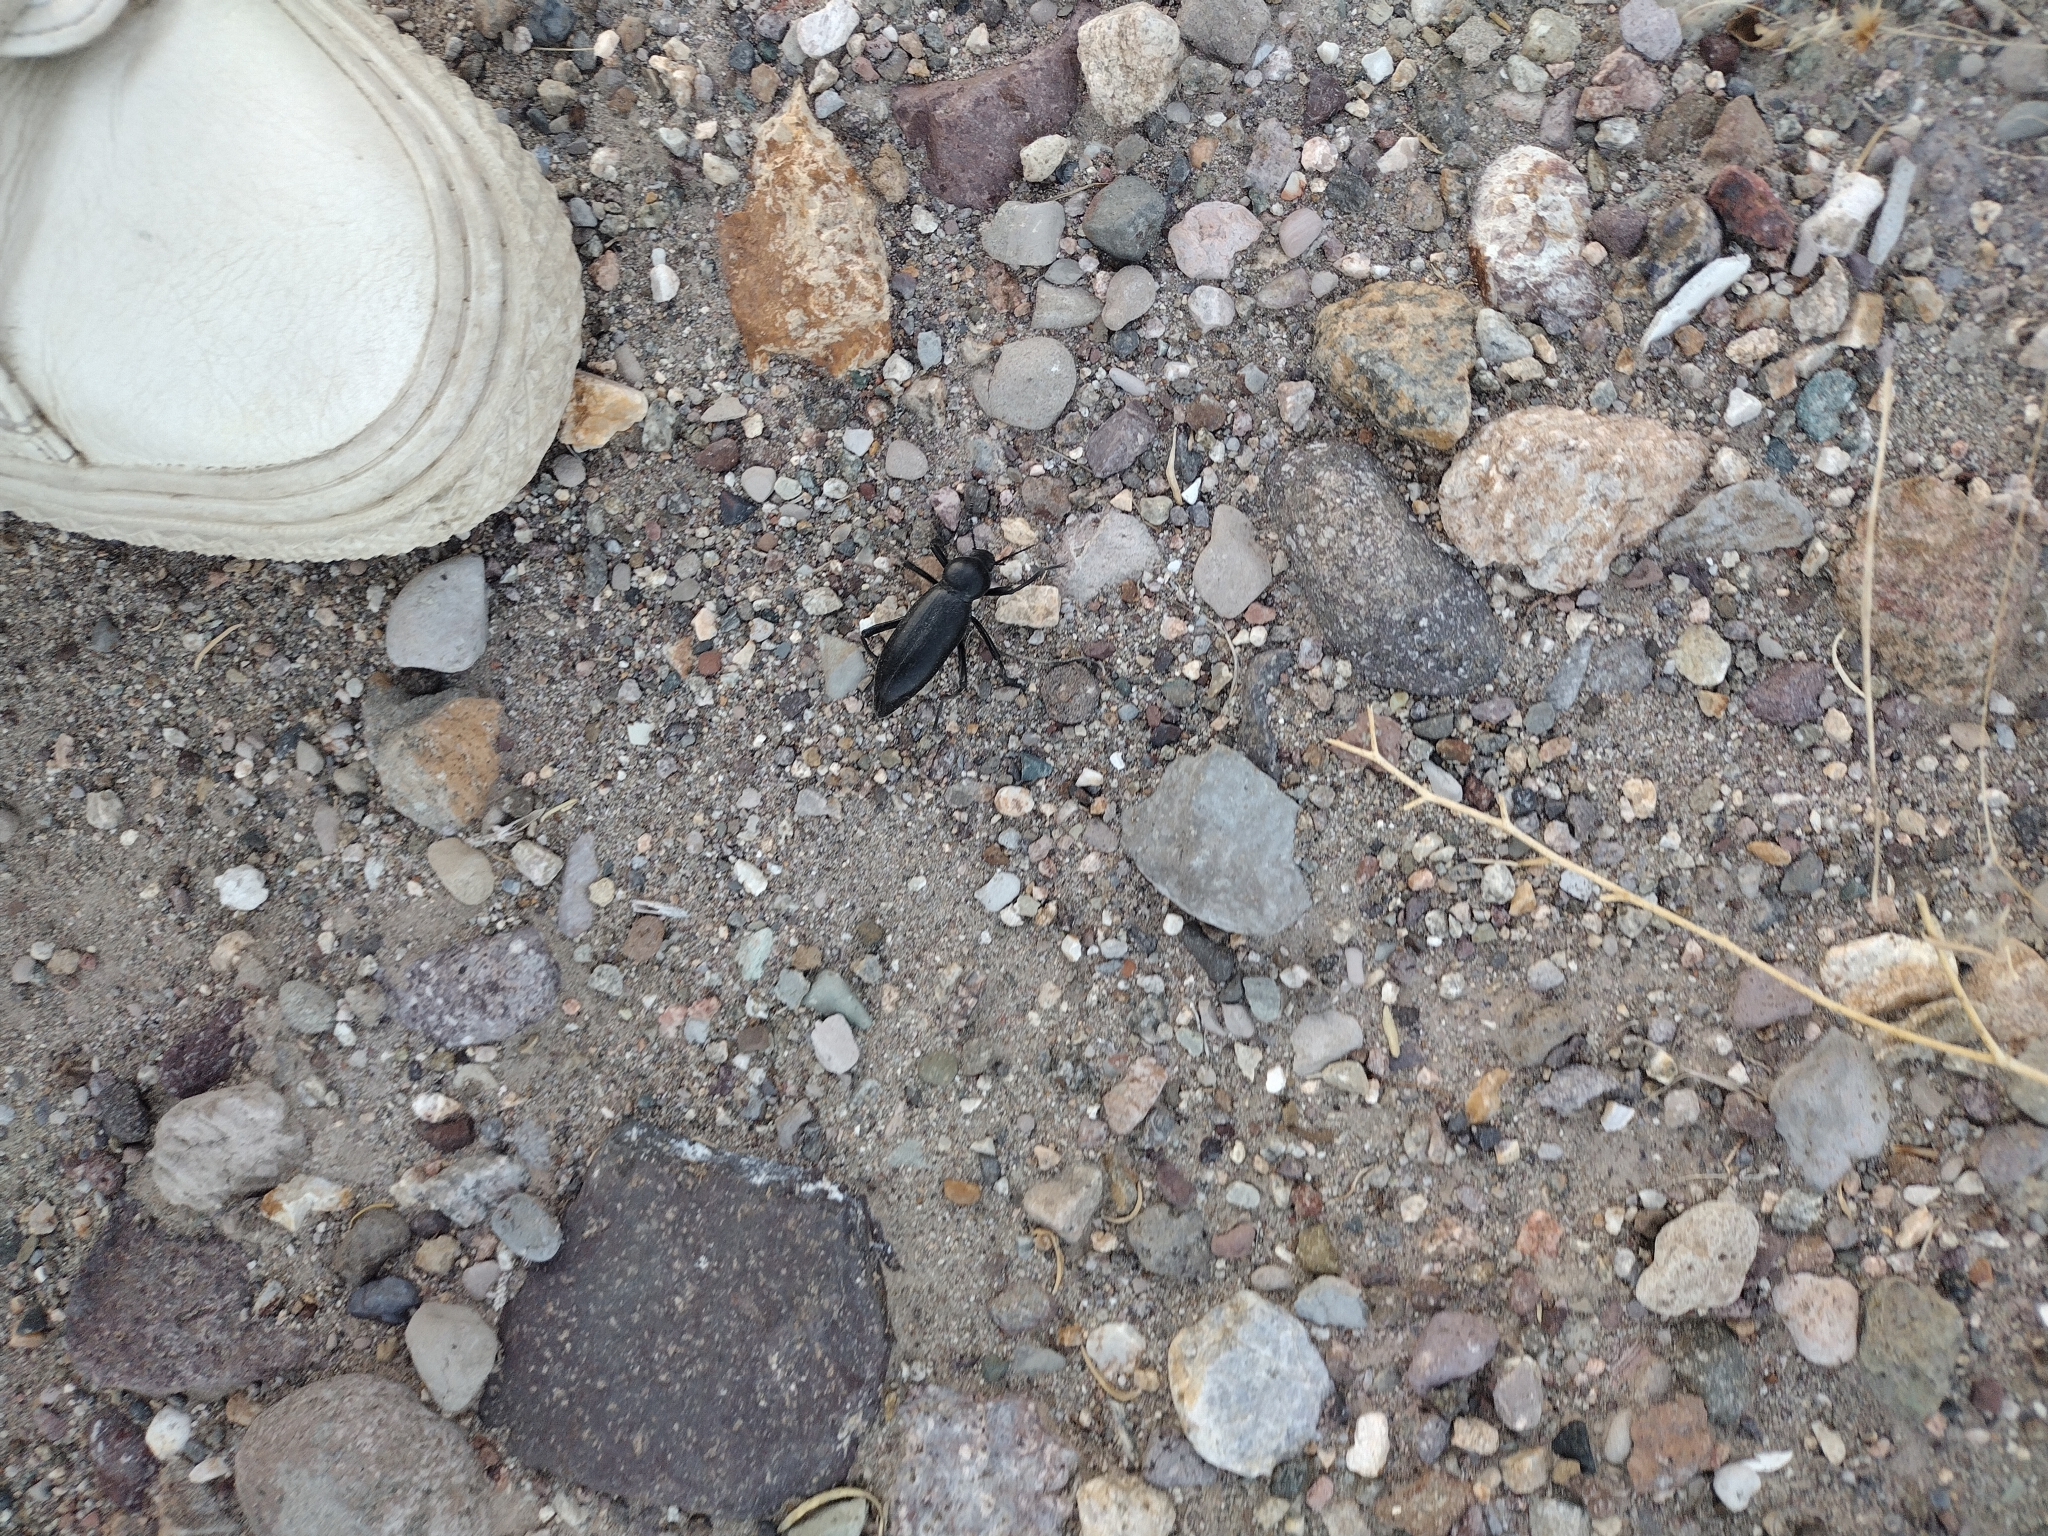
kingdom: Animalia
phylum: Arthropoda
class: Insecta
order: Coleoptera
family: Tenebrionidae
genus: Eleodes
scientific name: Eleodes gigantea
